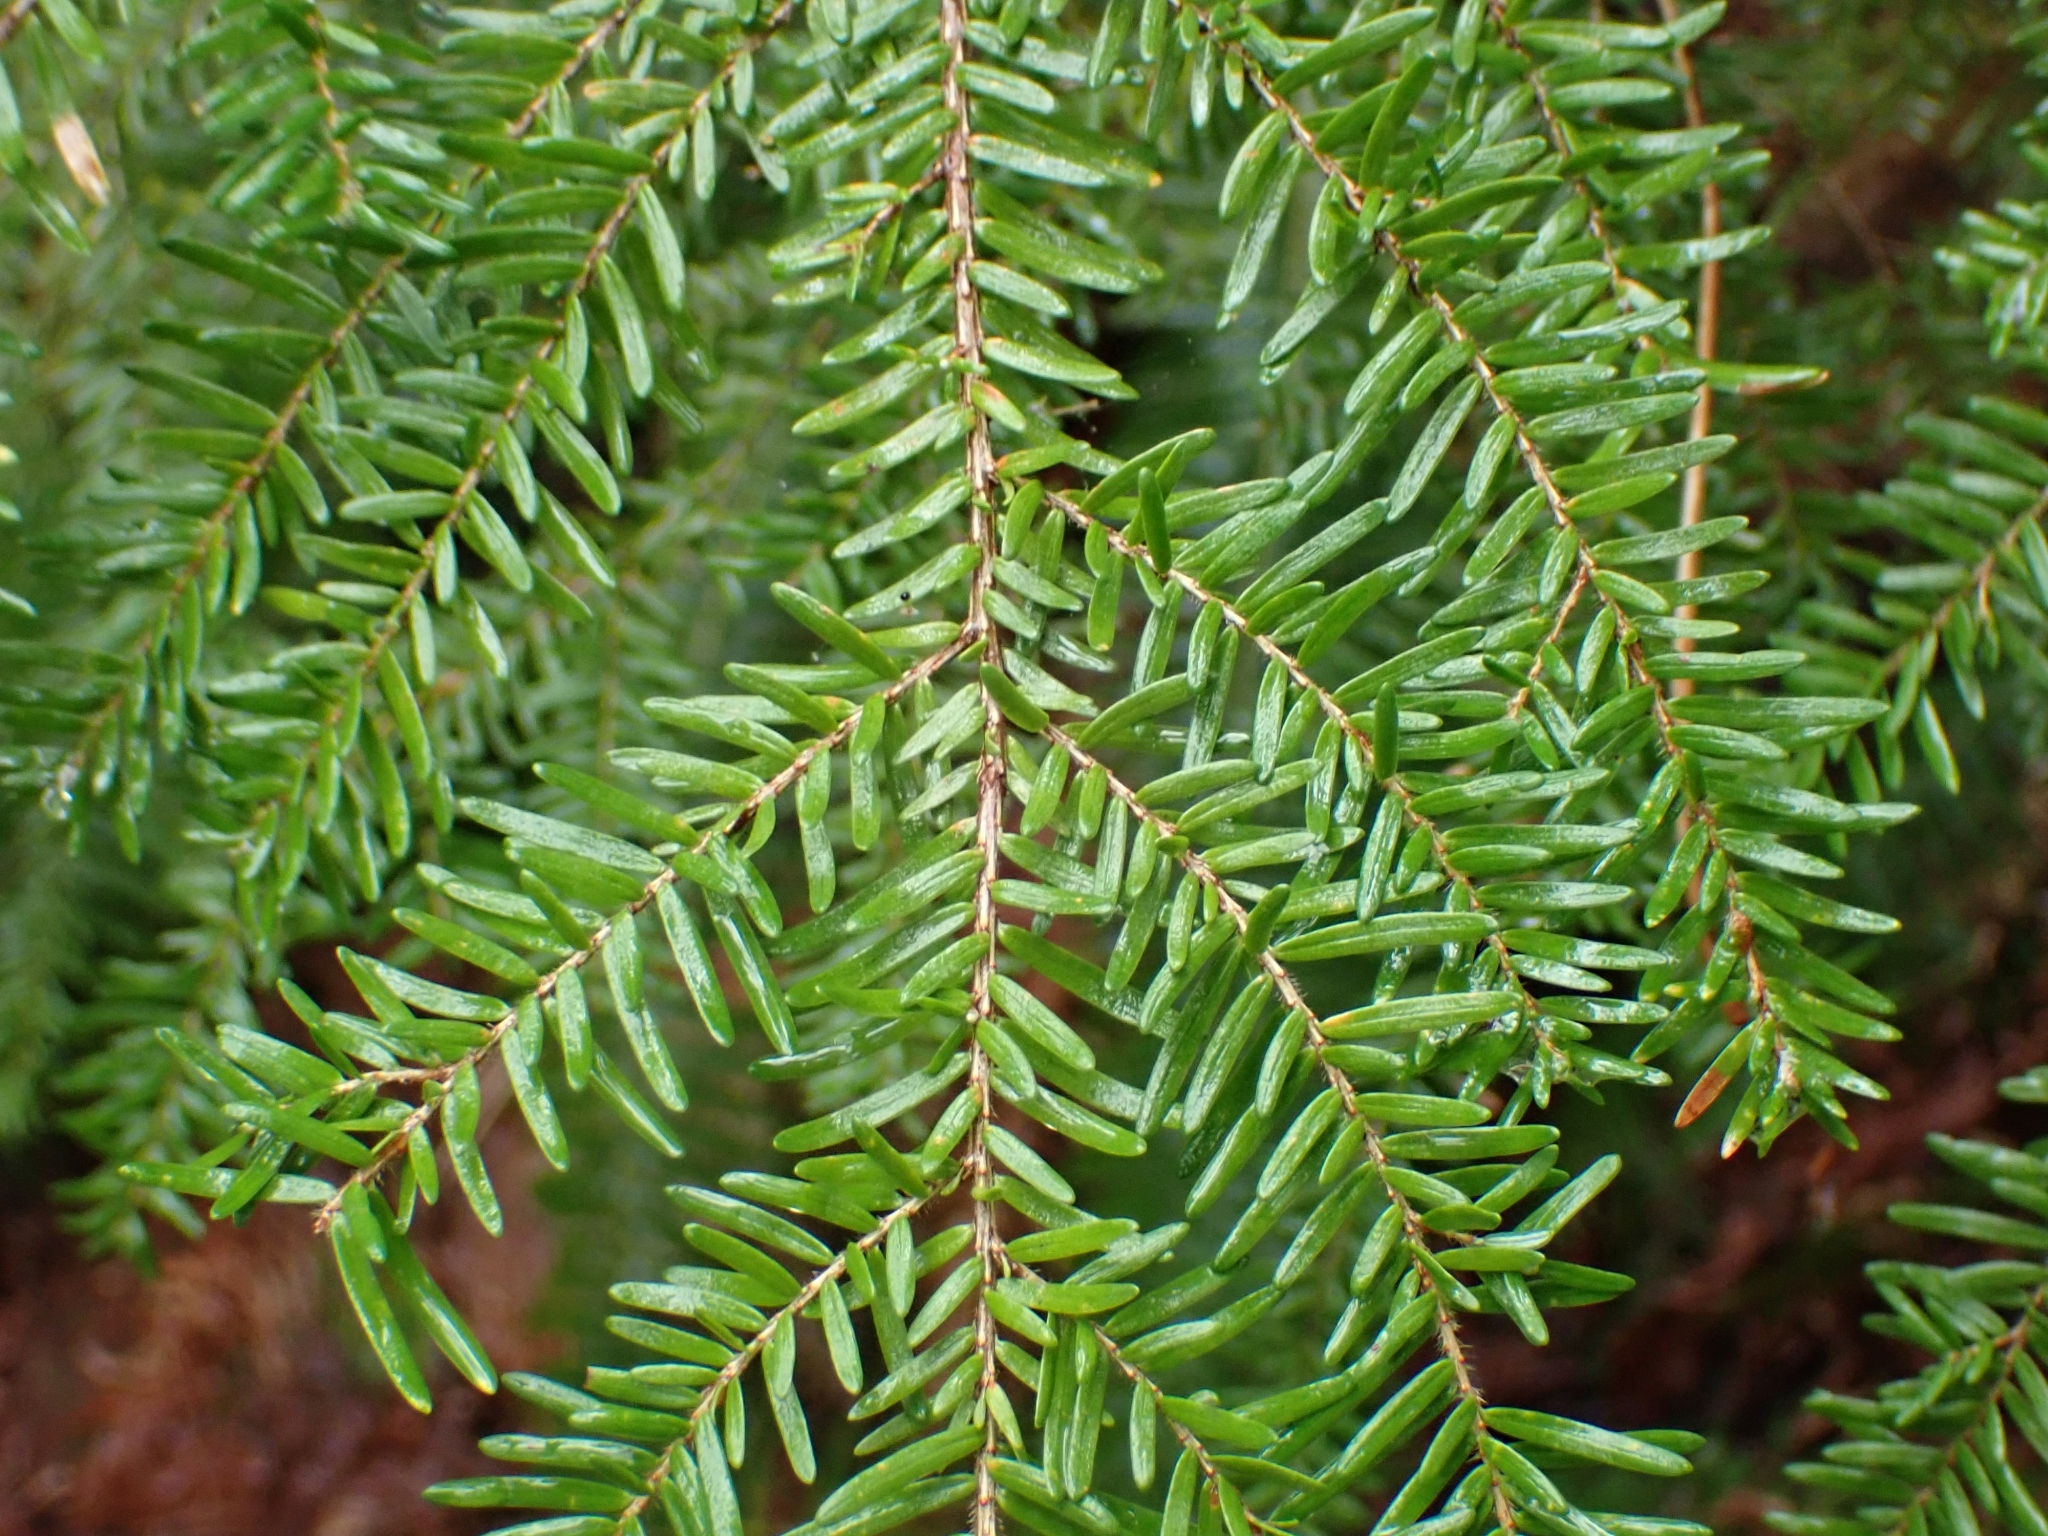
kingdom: Plantae
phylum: Tracheophyta
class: Pinopsida
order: Pinales
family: Pinaceae
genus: Tsuga
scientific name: Tsuga heterophylla
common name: Western hemlock
